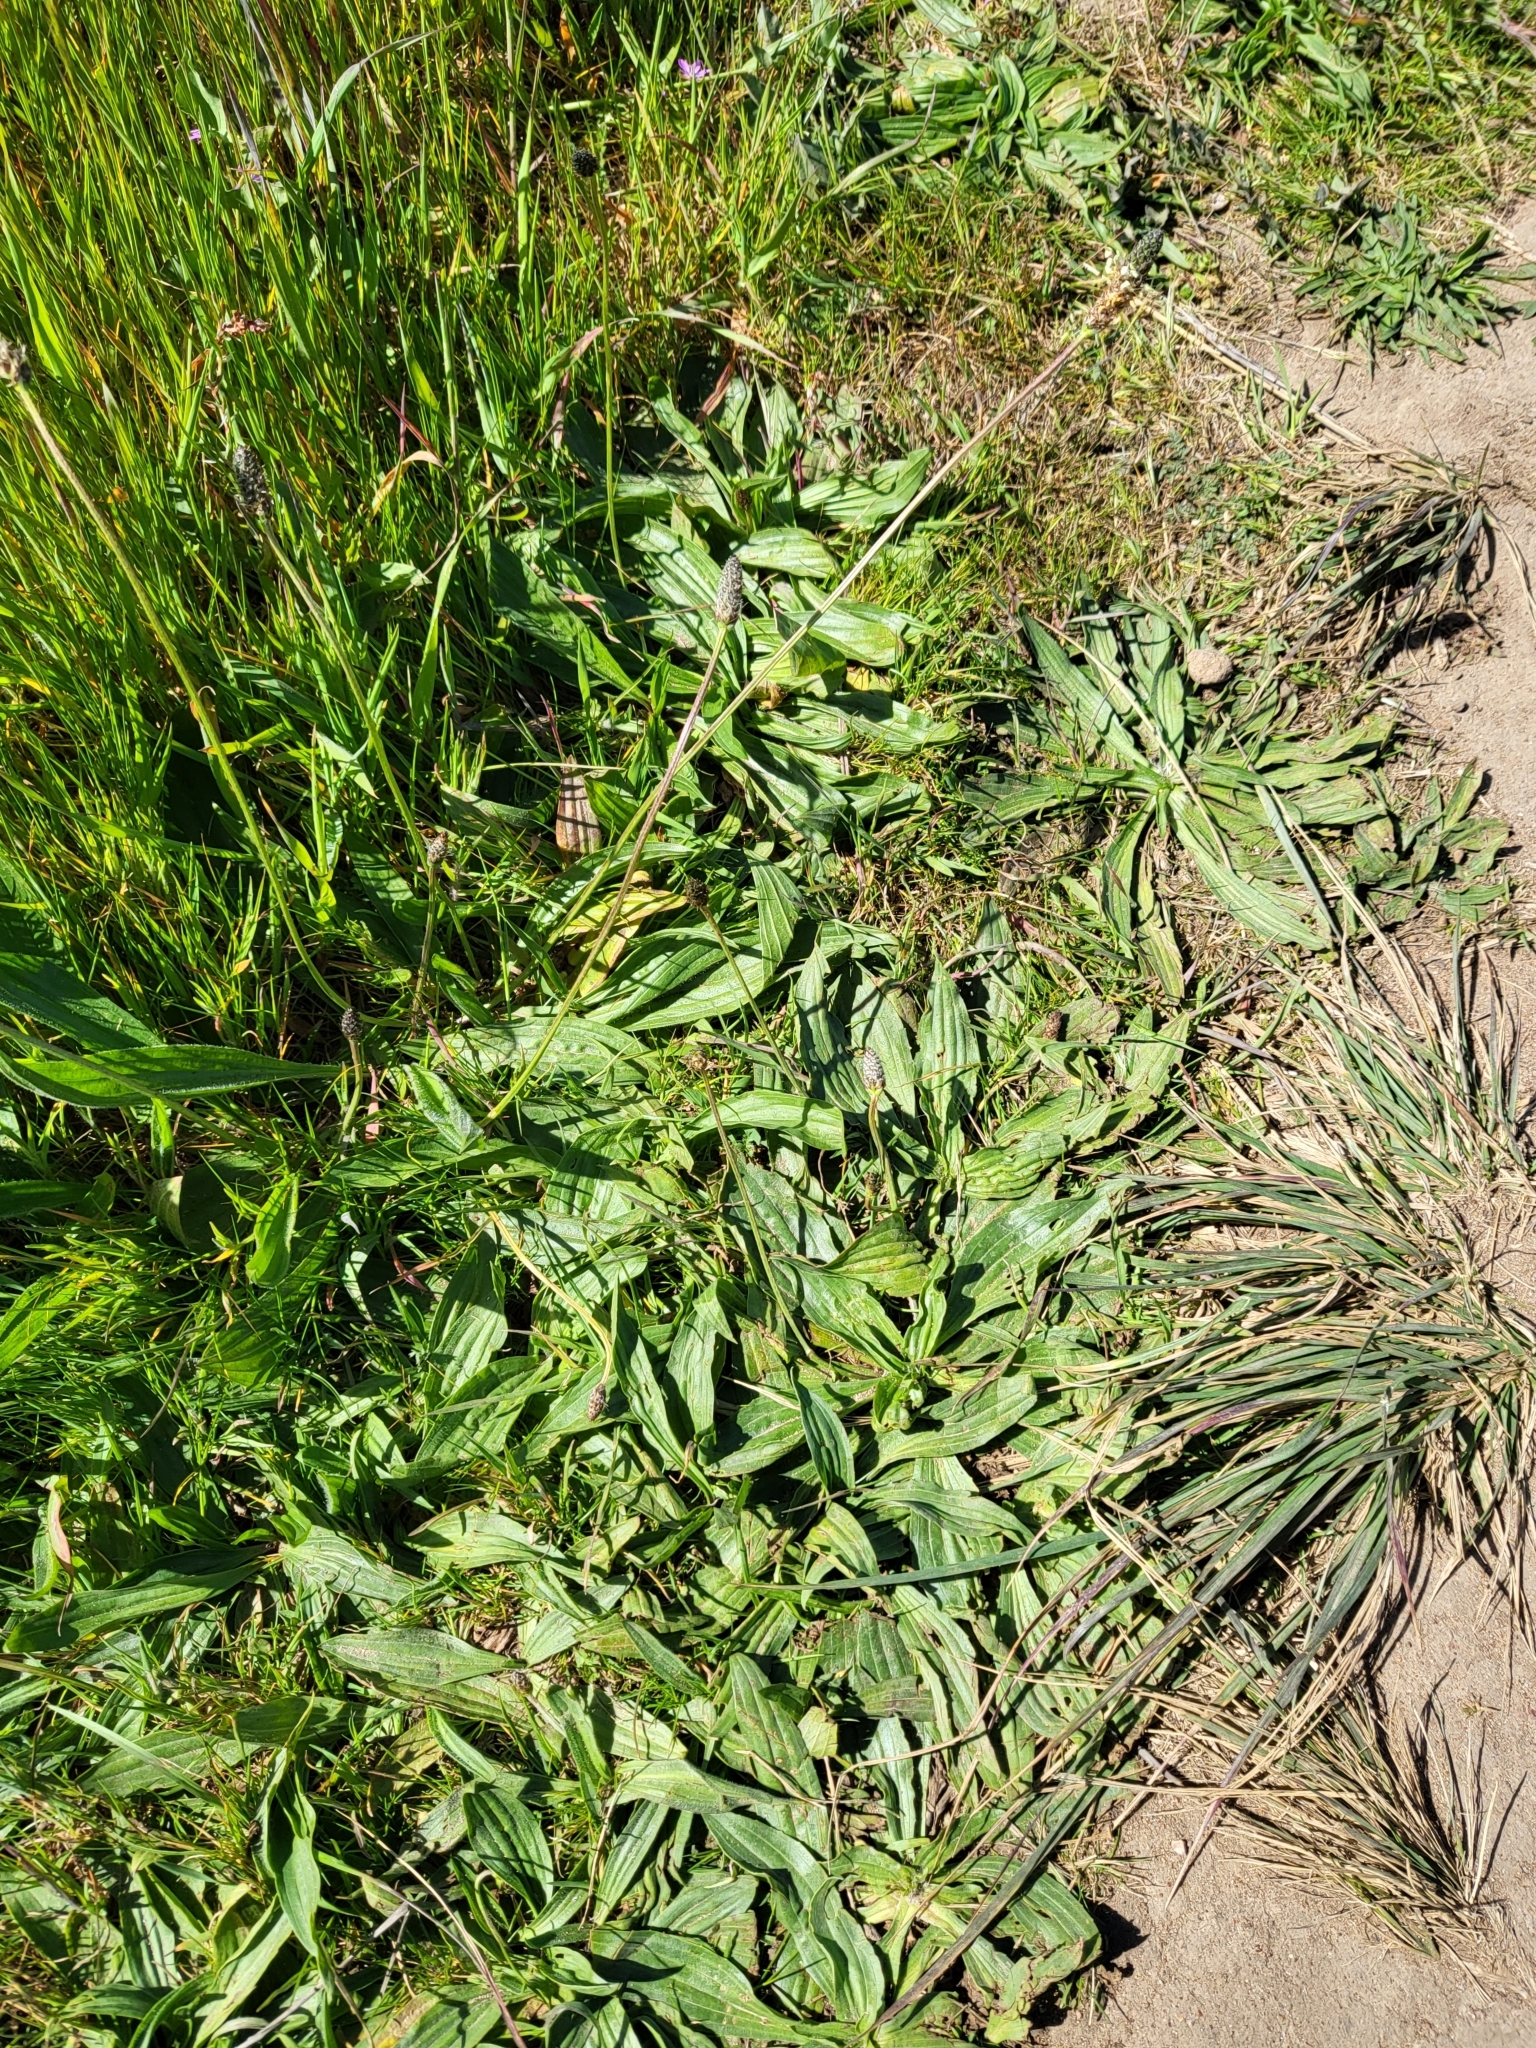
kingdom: Plantae
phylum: Tracheophyta
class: Magnoliopsida
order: Lamiales
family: Plantaginaceae
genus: Plantago
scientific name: Plantago lanceolata
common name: Ribwort plantain
